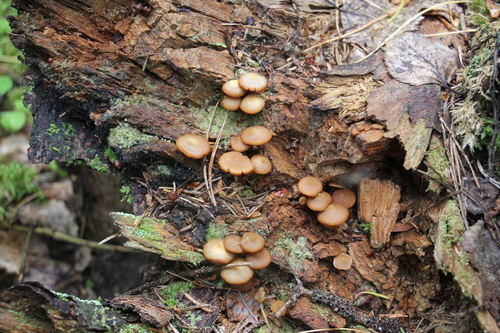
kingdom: Fungi
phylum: Basidiomycota
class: Agaricomycetes
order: Agaricales
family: Strophariaceae
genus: Pholiota
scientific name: Pholiota lignicola
